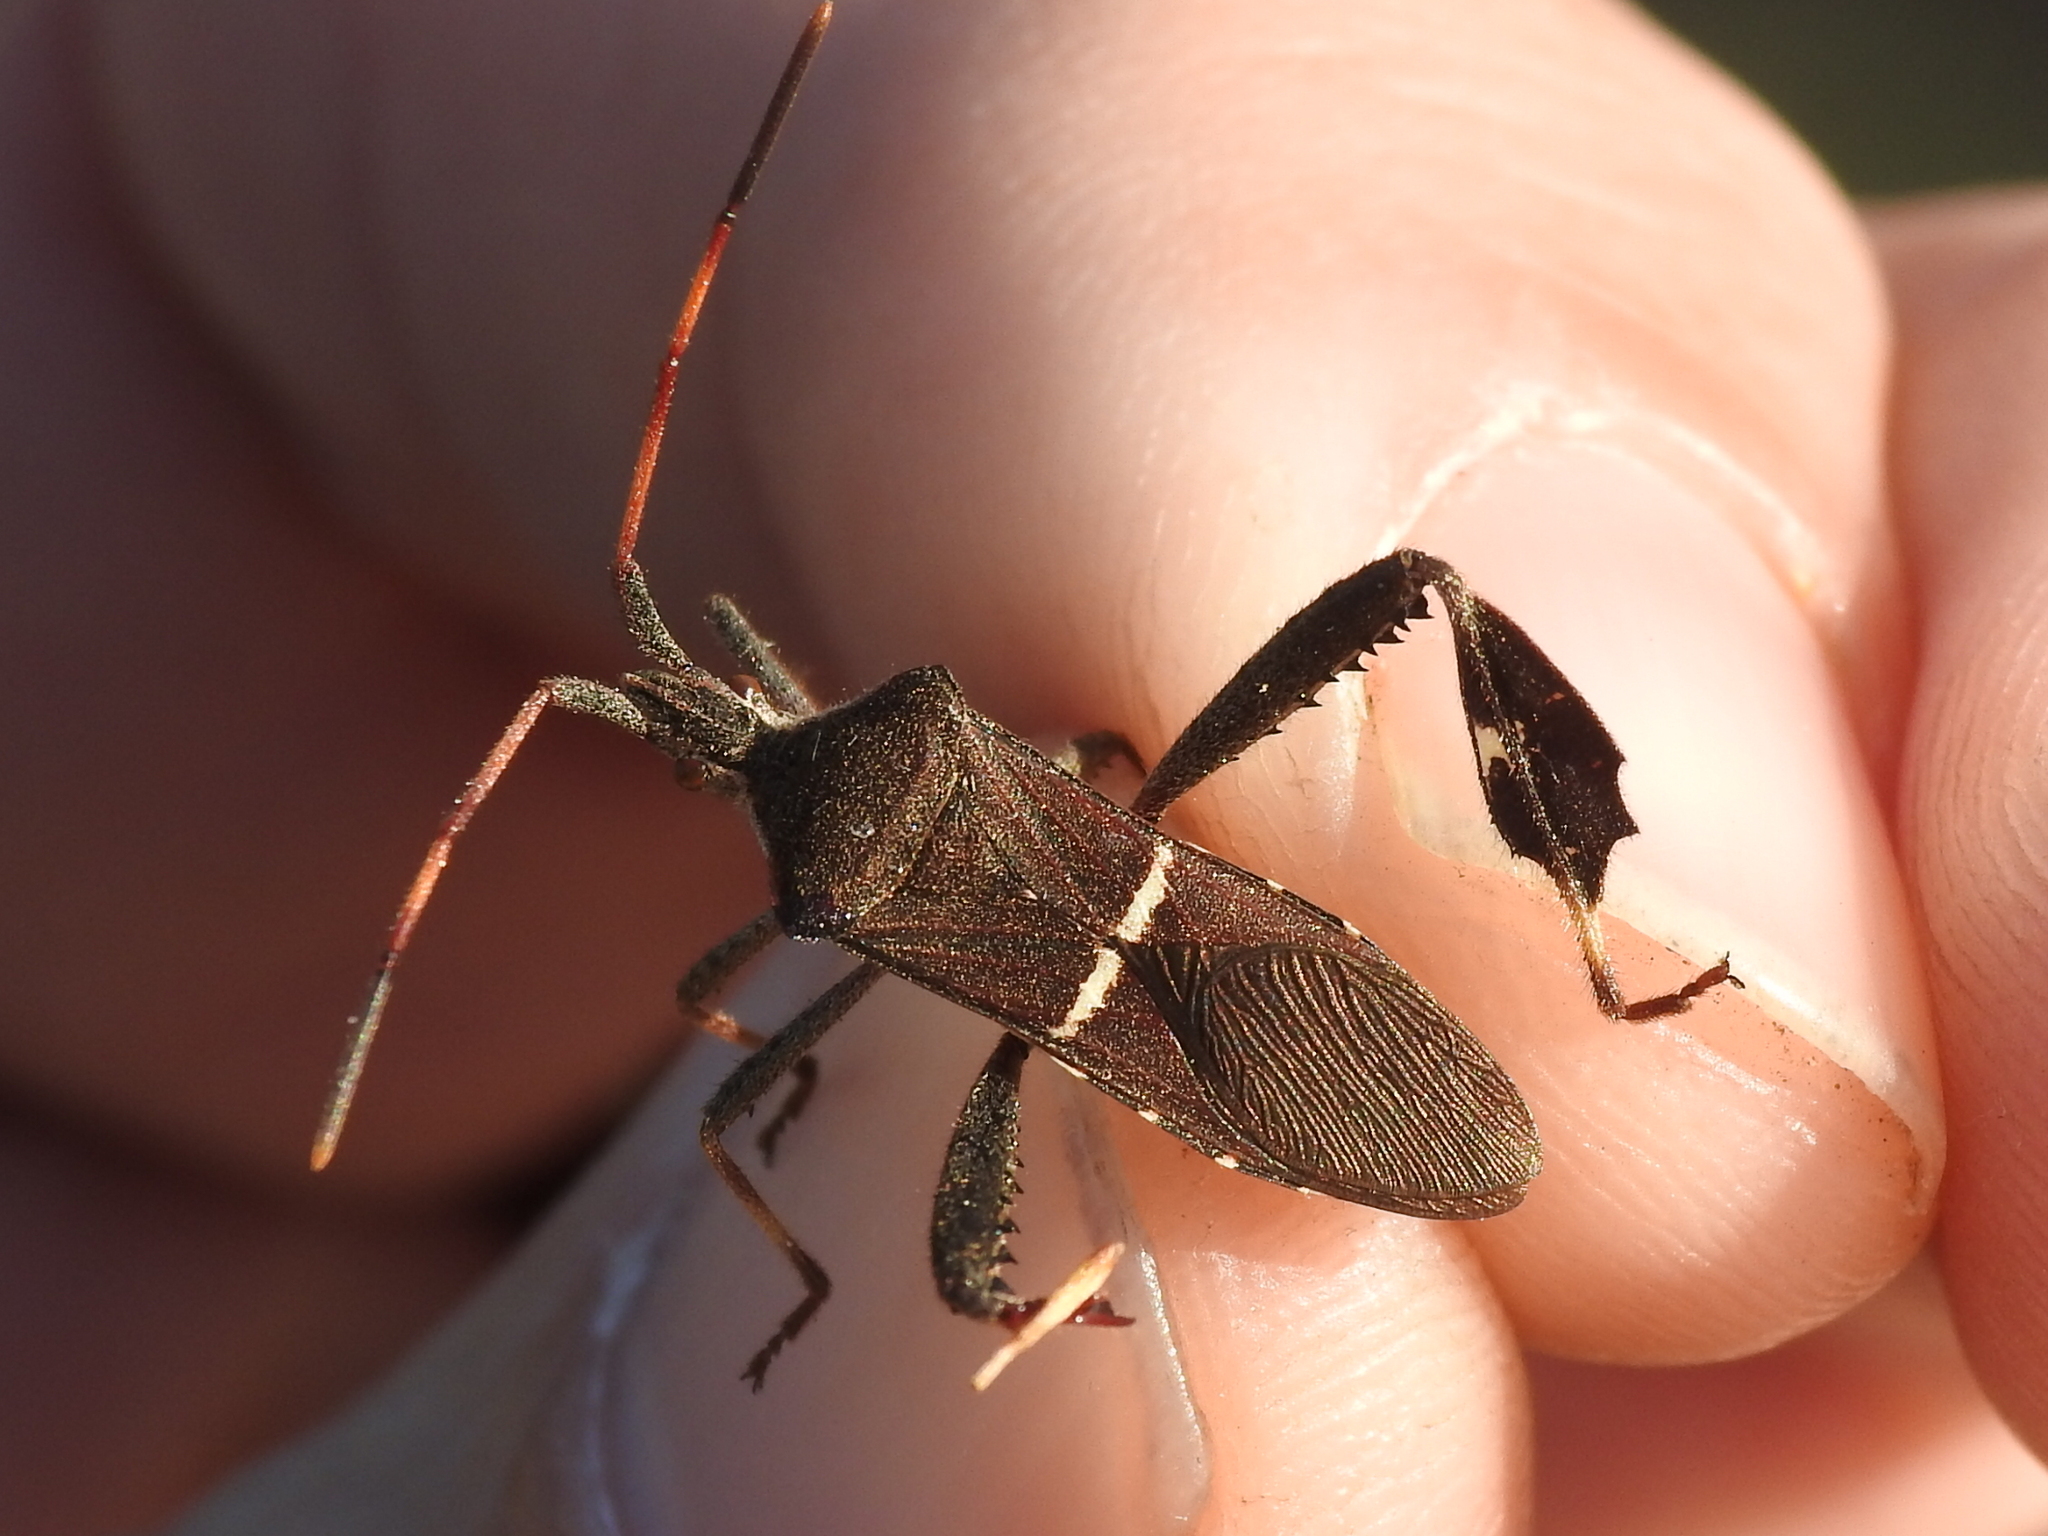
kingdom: Animalia
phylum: Arthropoda
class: Insecta
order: Hemiptera
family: Coreidae
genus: Leptoglossus
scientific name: Leptoglossus phyllopus
